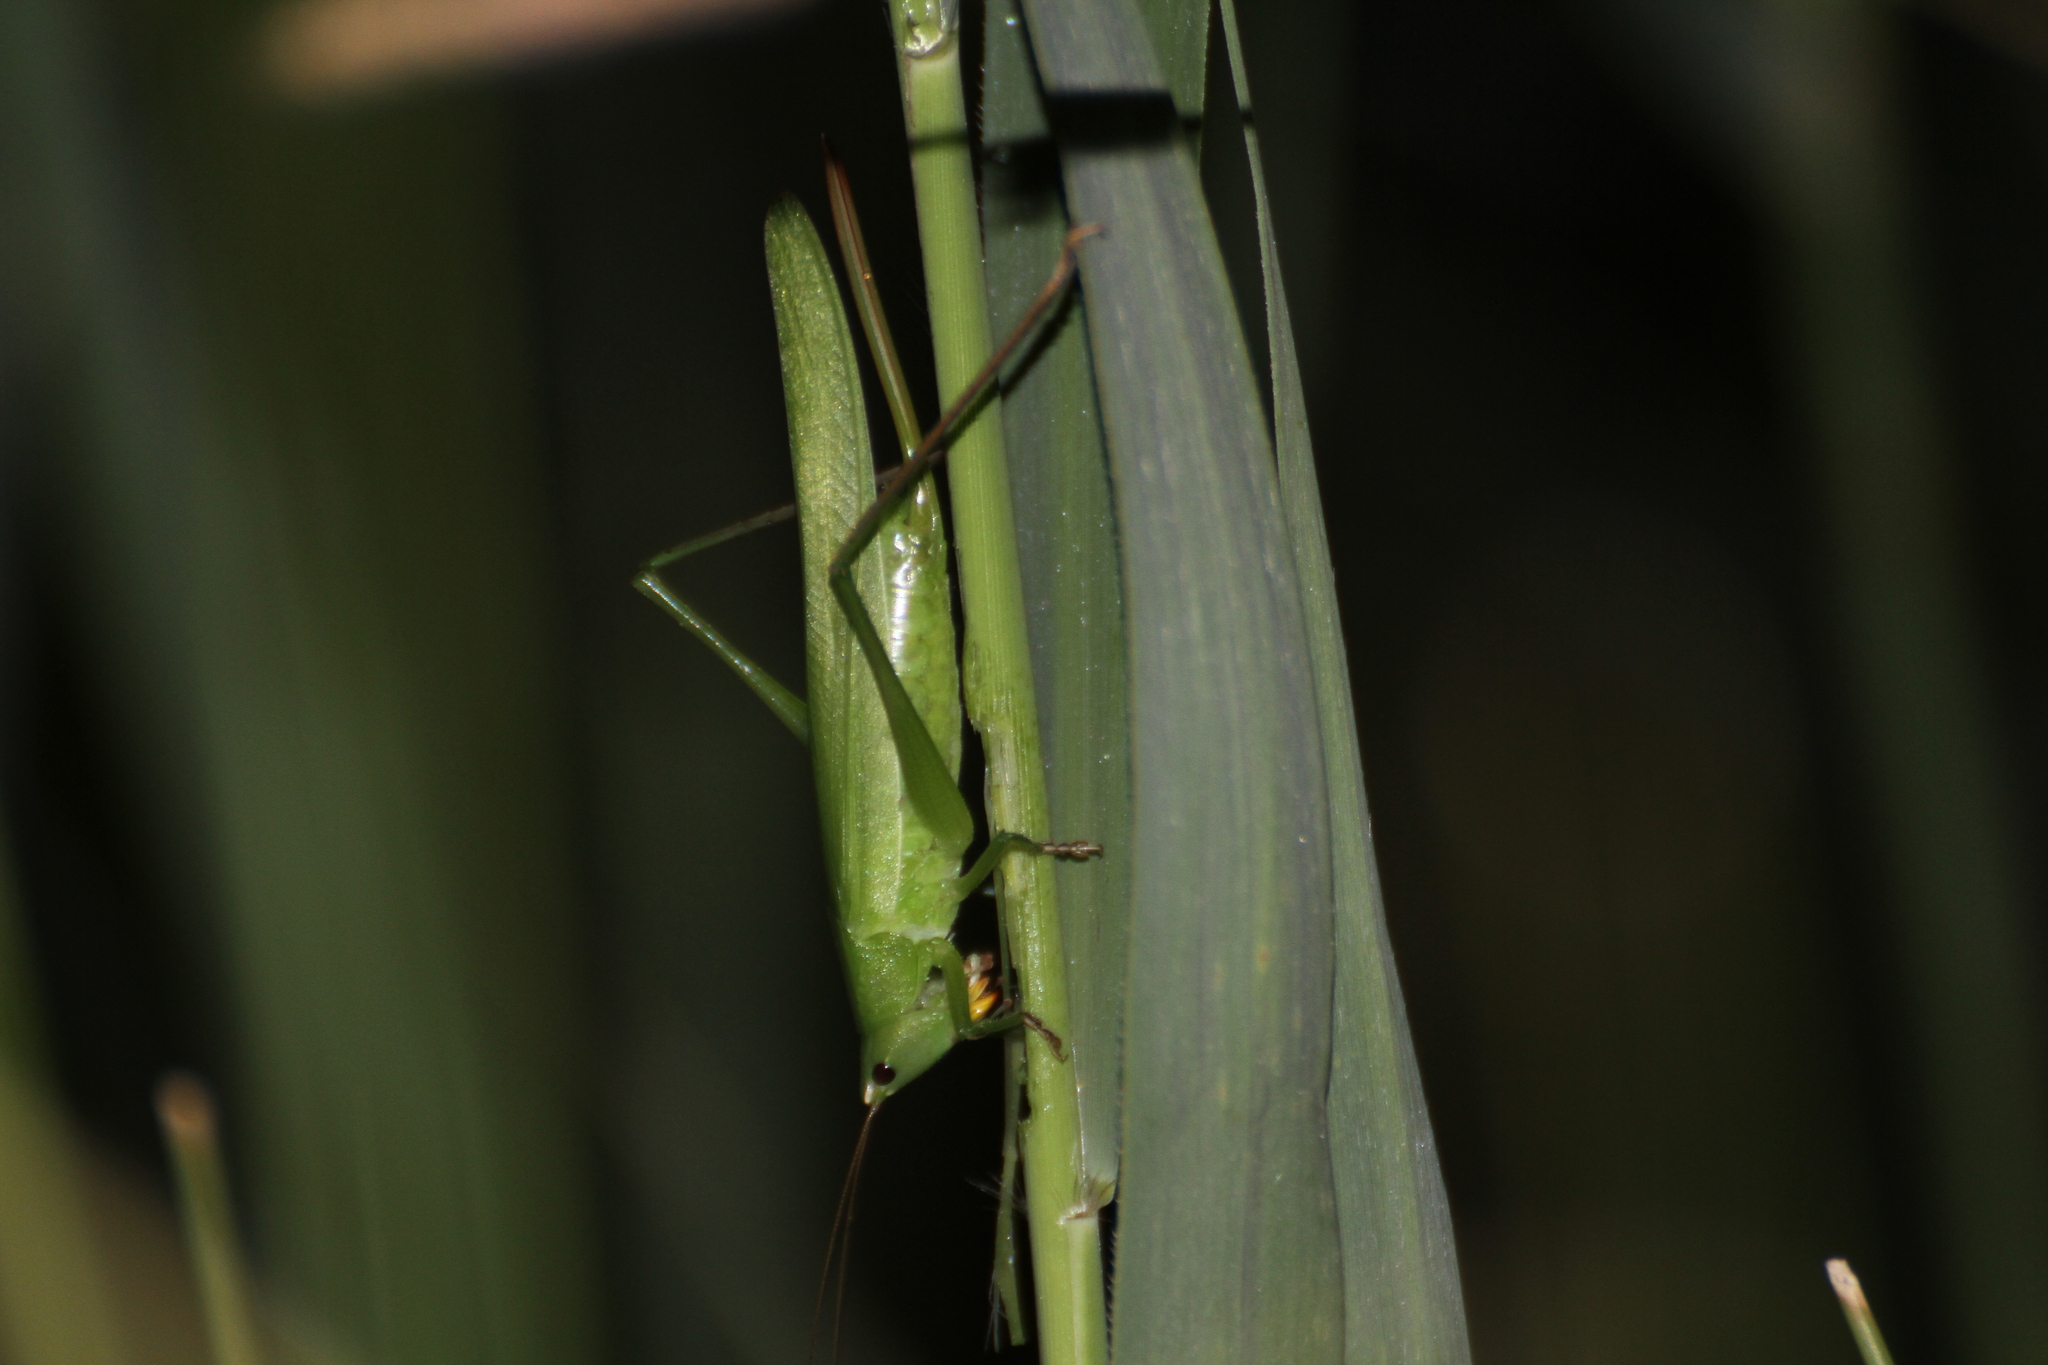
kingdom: Animalia
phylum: Arthropoda
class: Insecta
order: Orthoptera
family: Tettigoniidae
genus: Ruspolia
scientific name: Ruspolia nitidula
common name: Large conehead
